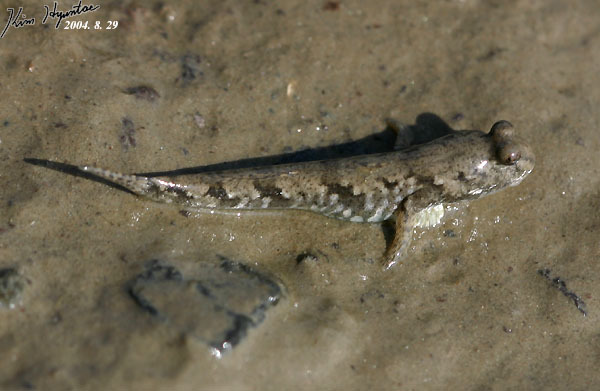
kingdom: Animalia
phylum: Chordata
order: Perciformes
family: Gobiidae
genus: Periophthalmus
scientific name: Periophthalmus modestus
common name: Black goby
